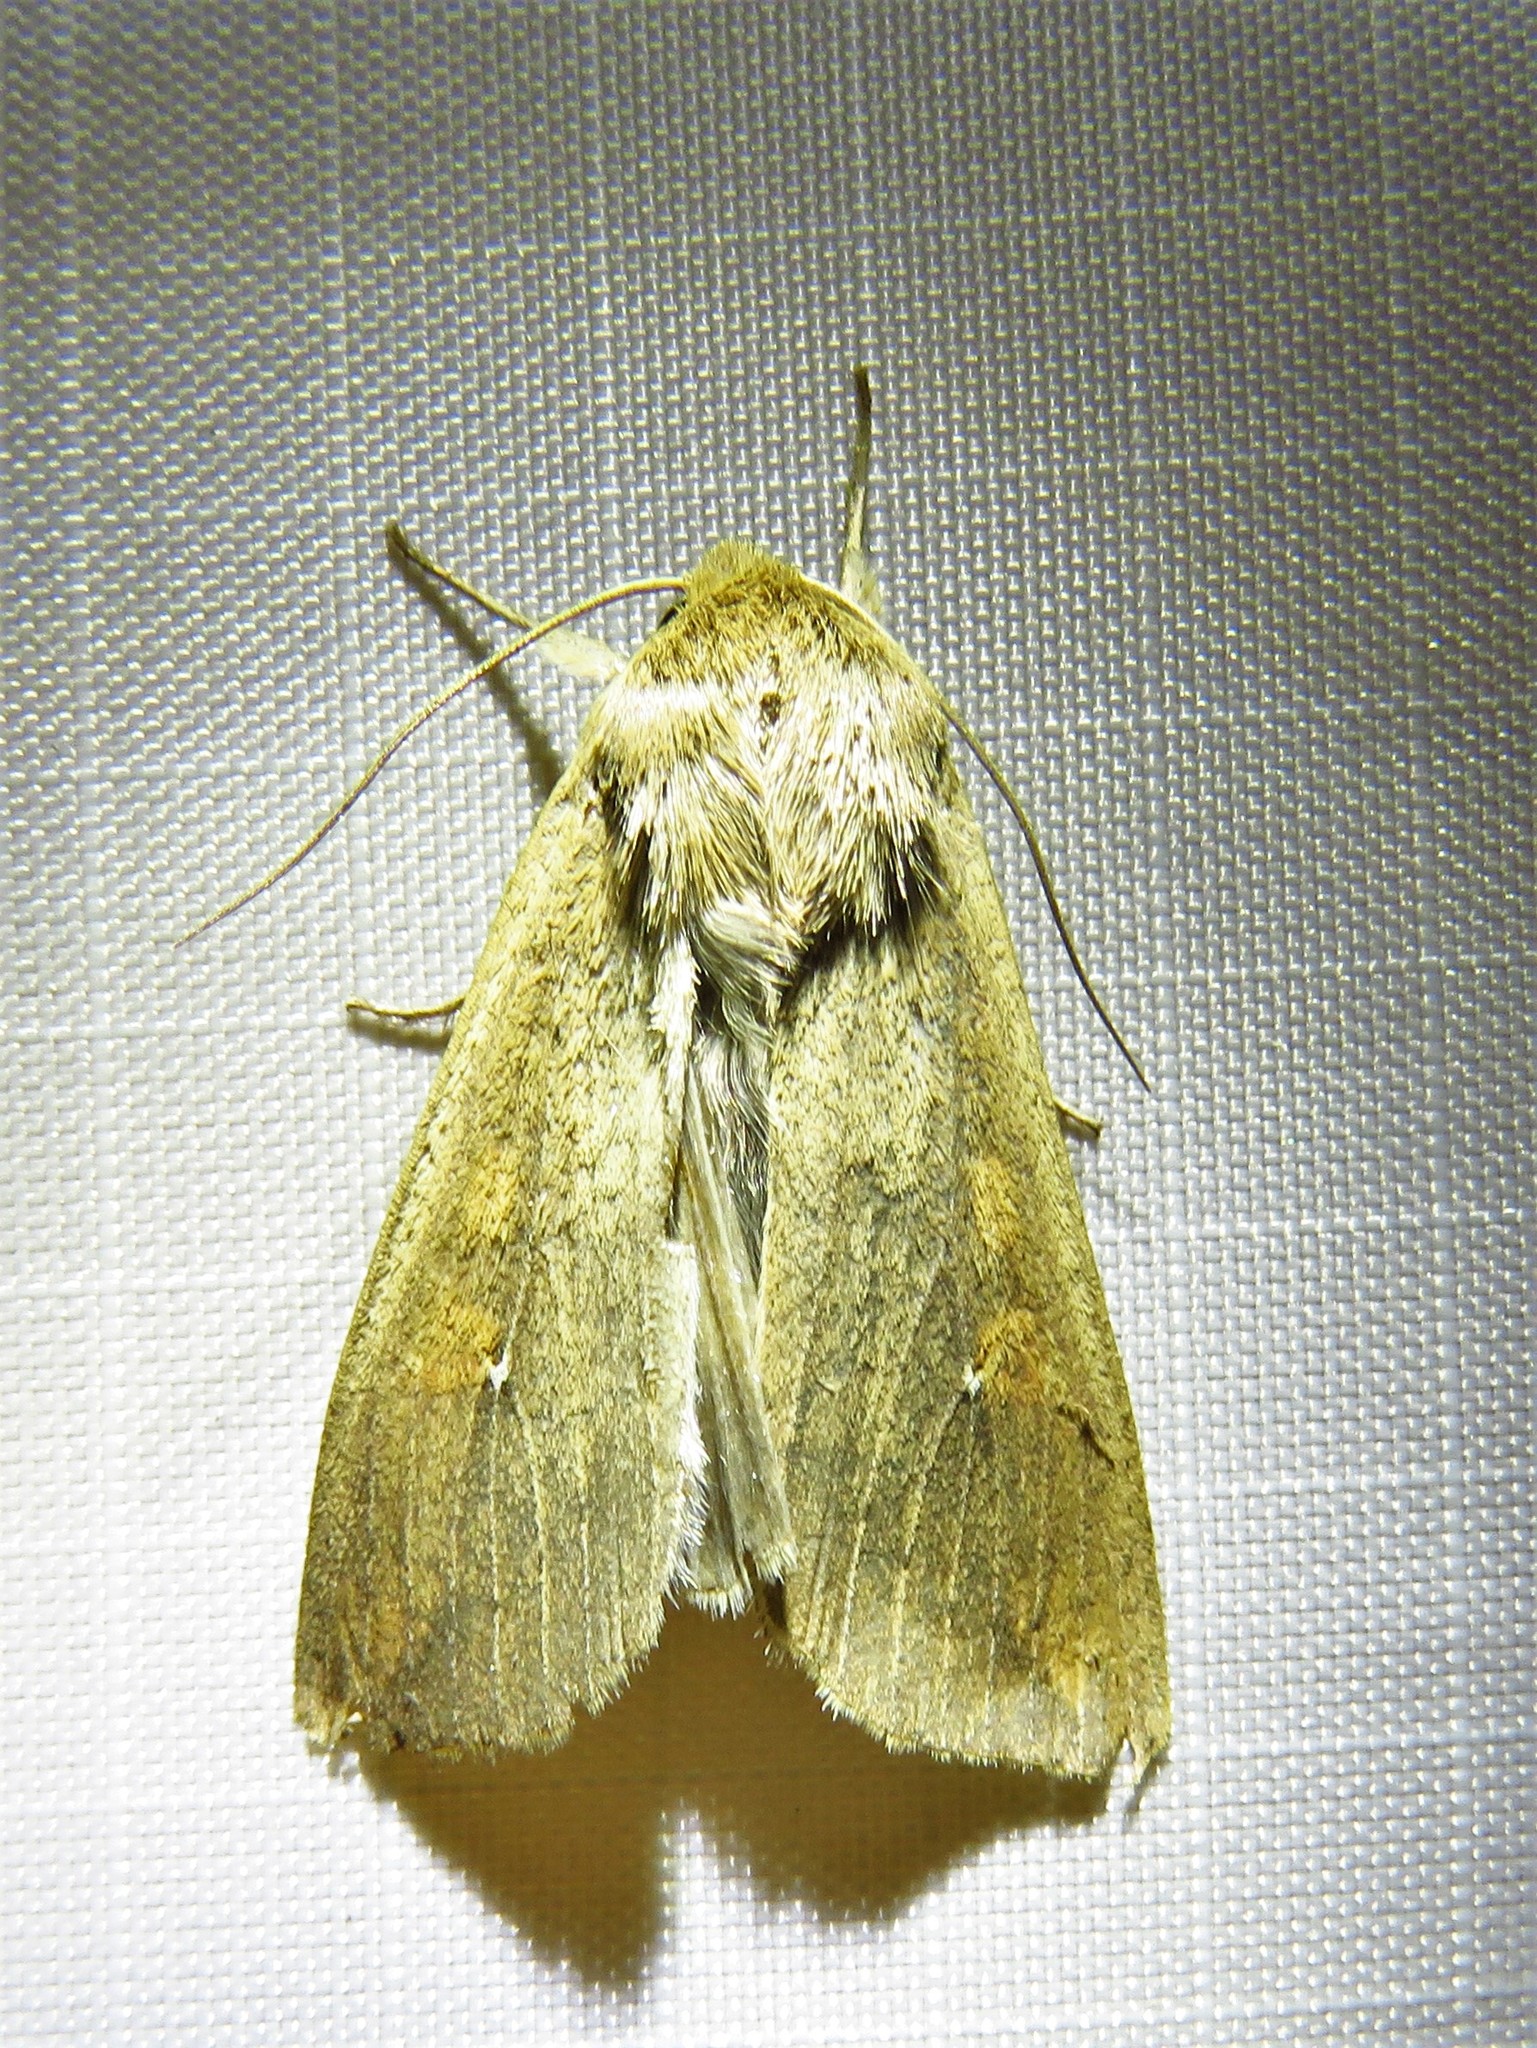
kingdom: Animalia
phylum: Arthropoda
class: Insecta
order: Lepidoptera
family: Noctuidae
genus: Mythimna
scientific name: Mythimna unipuncta
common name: White-speck
